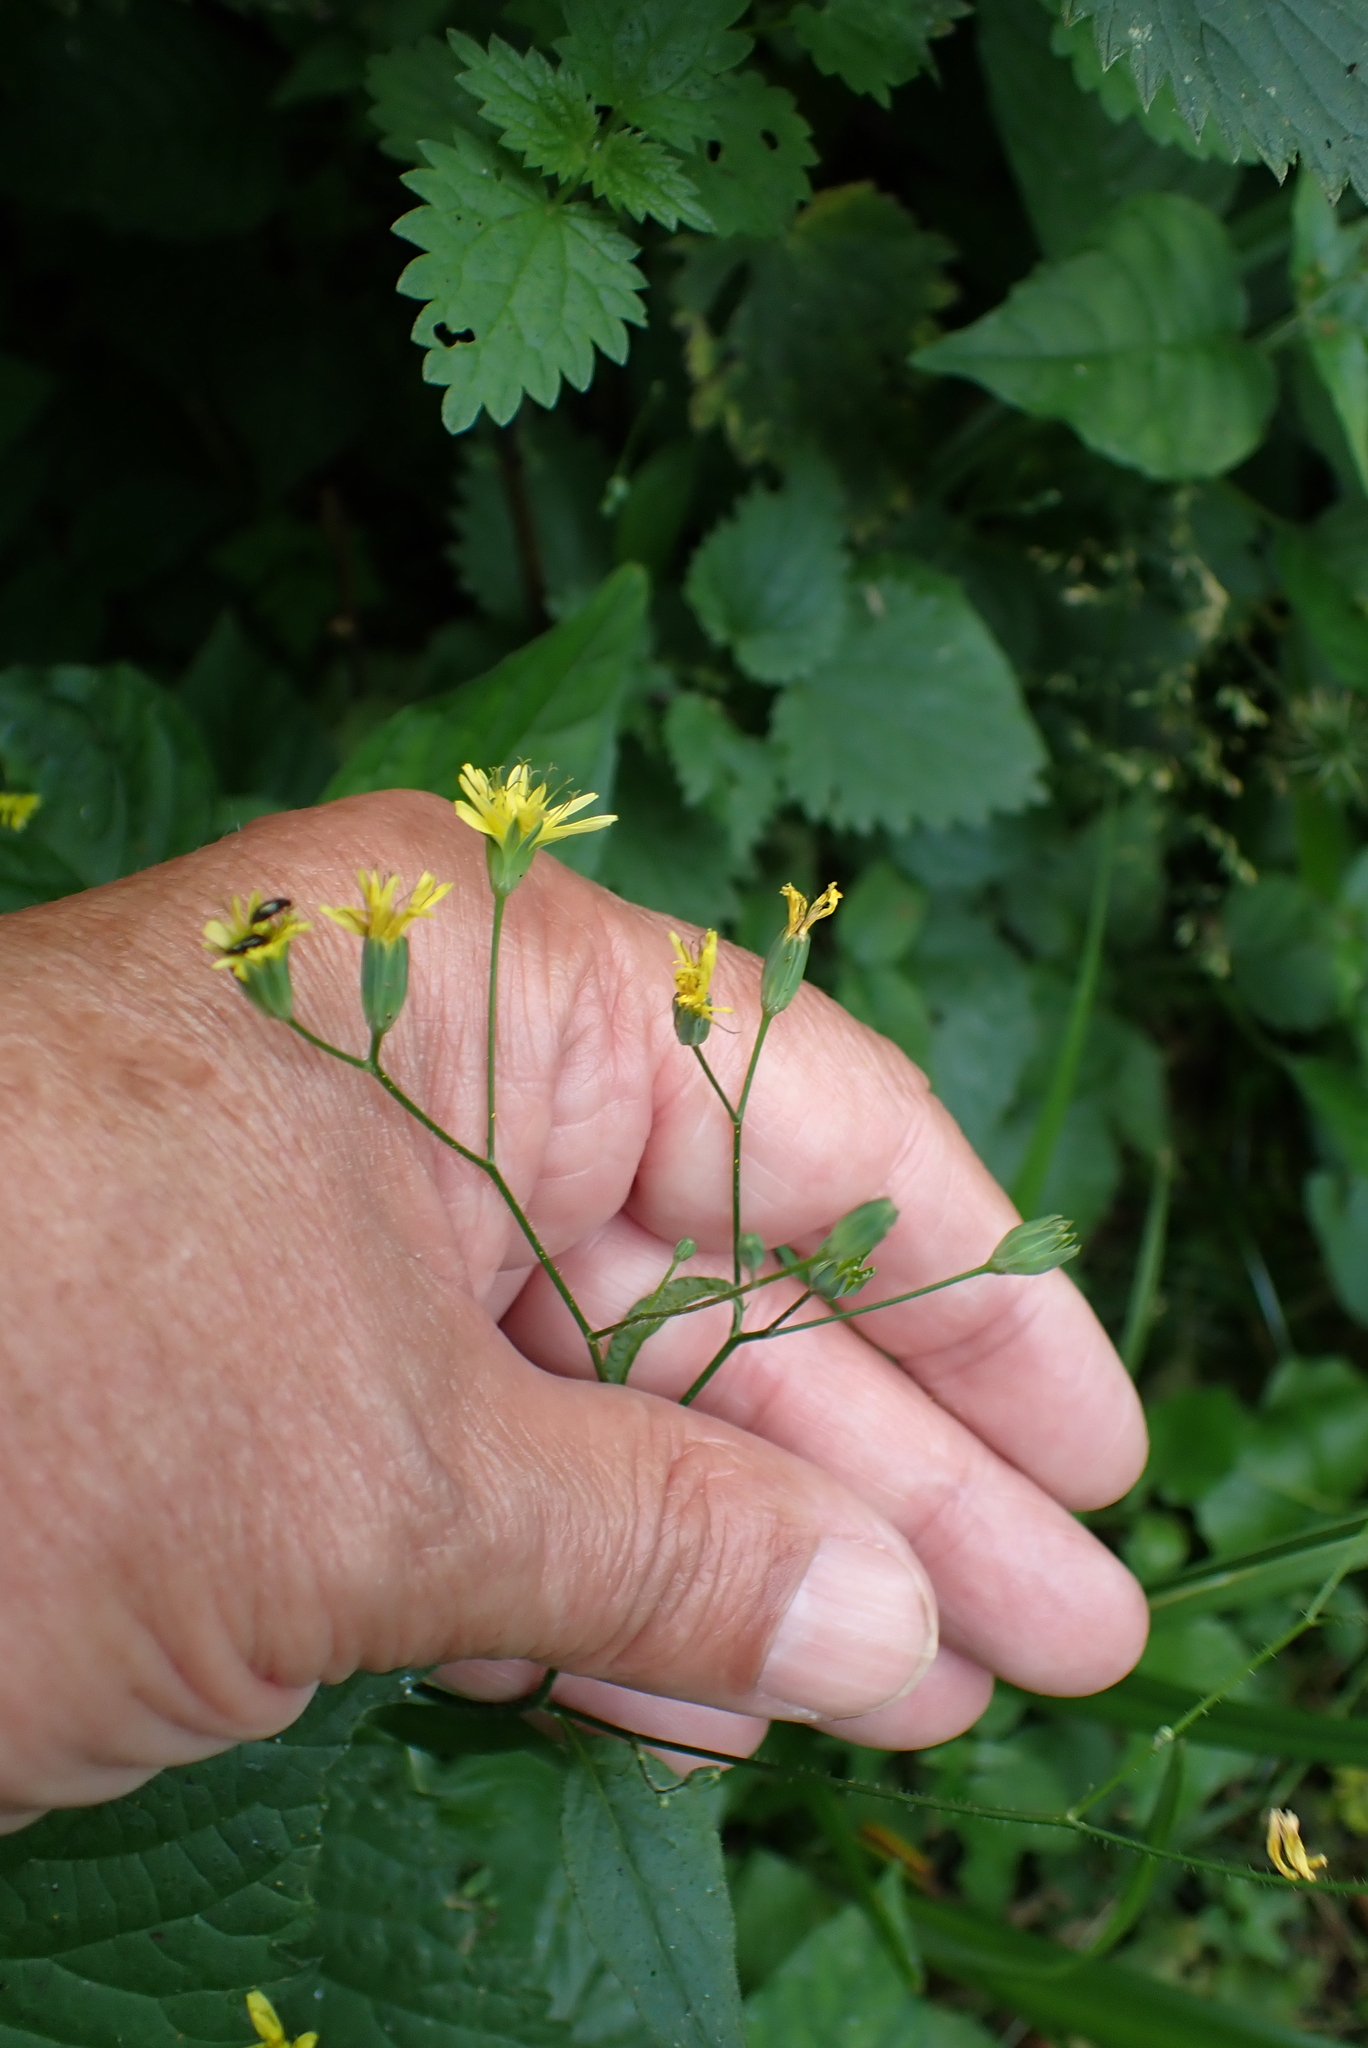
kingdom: Plantae
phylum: Tracheophyta
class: Magnoliopsida
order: Asterales
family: Asteraceae
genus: Lapsana
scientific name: Lapsana communis
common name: Nipplewort
